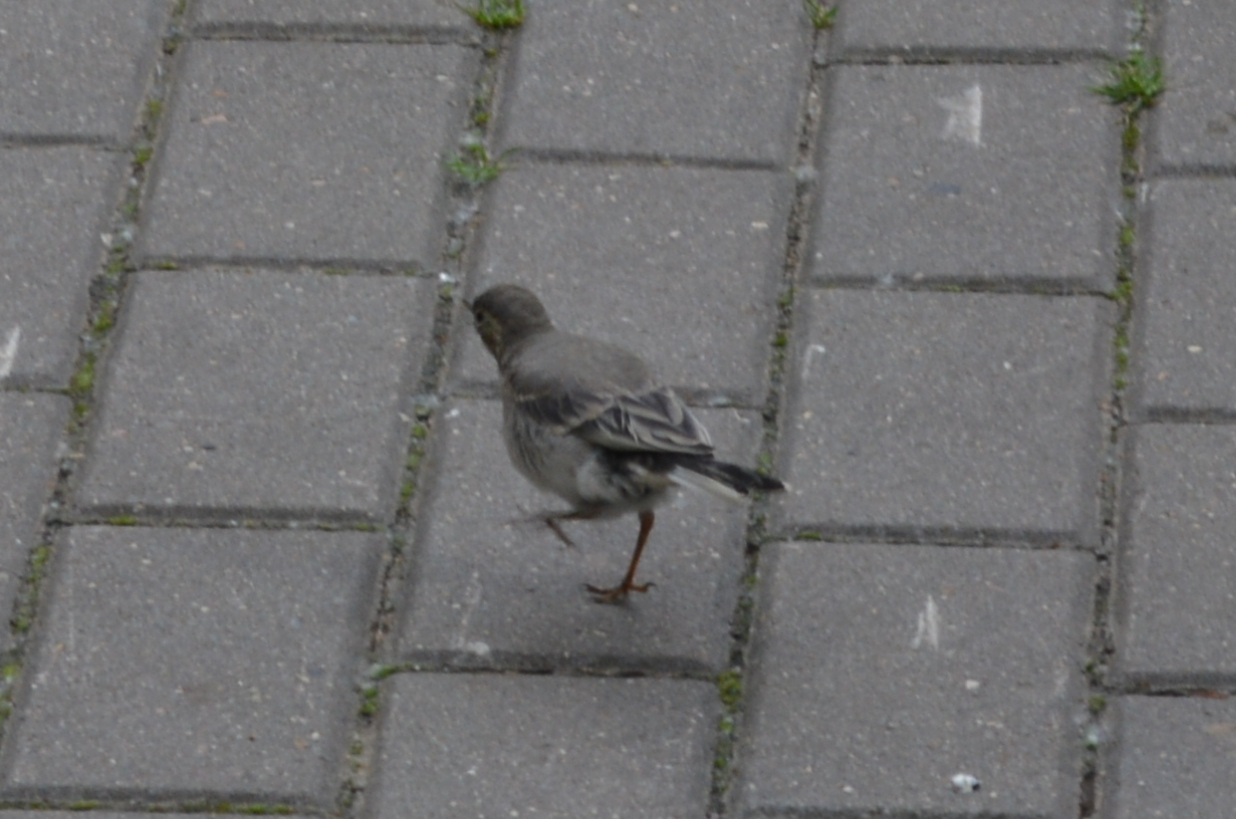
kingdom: Animalia
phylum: Chordata
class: Aves
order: Passeriformes
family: Motacillidae
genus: Motacilla
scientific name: Motacilla alba
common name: White wagtail
